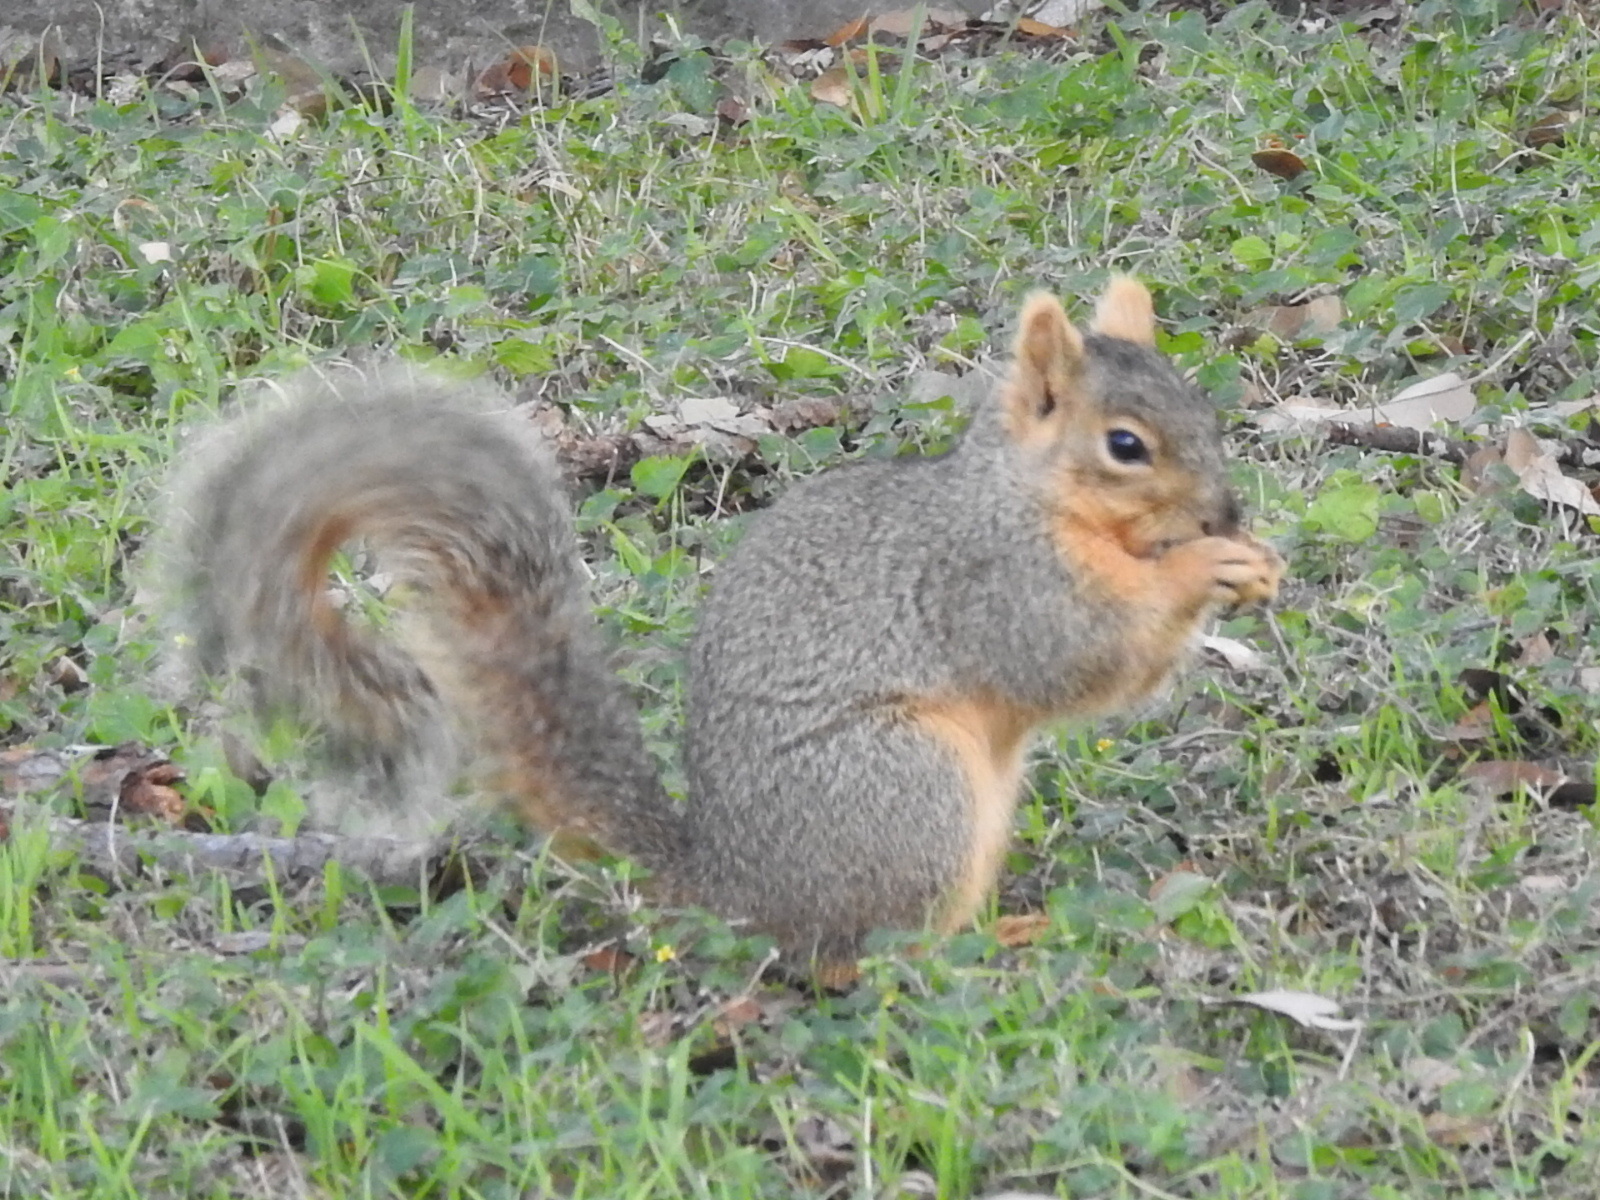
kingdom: Animalia
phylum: Chordata
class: Mammalia
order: Rodentia
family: Sciuridae
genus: Sciurus
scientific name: Sciurus niger
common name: Fox squirrel
